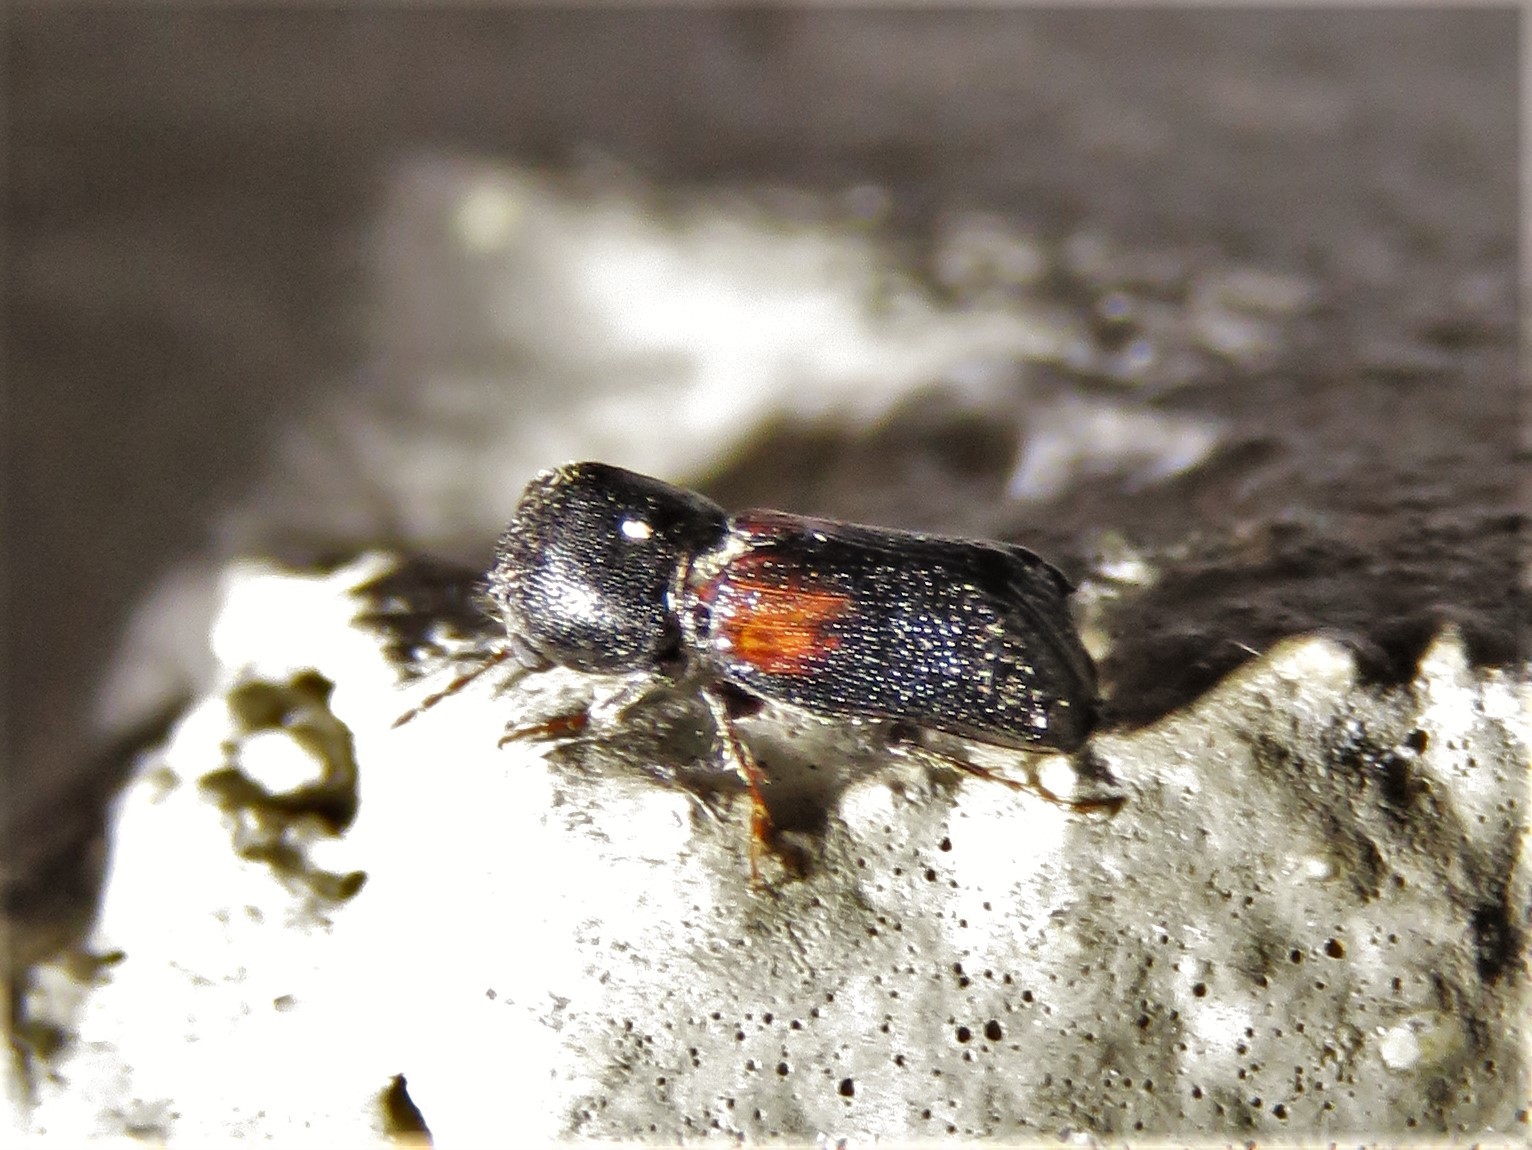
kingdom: Animalia
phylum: Arthropoda
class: Insecta
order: Coleoptera
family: Bostrichidae
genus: Xylobiops
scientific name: Xylobiops basilaris
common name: Red-shouldered bostrichid
